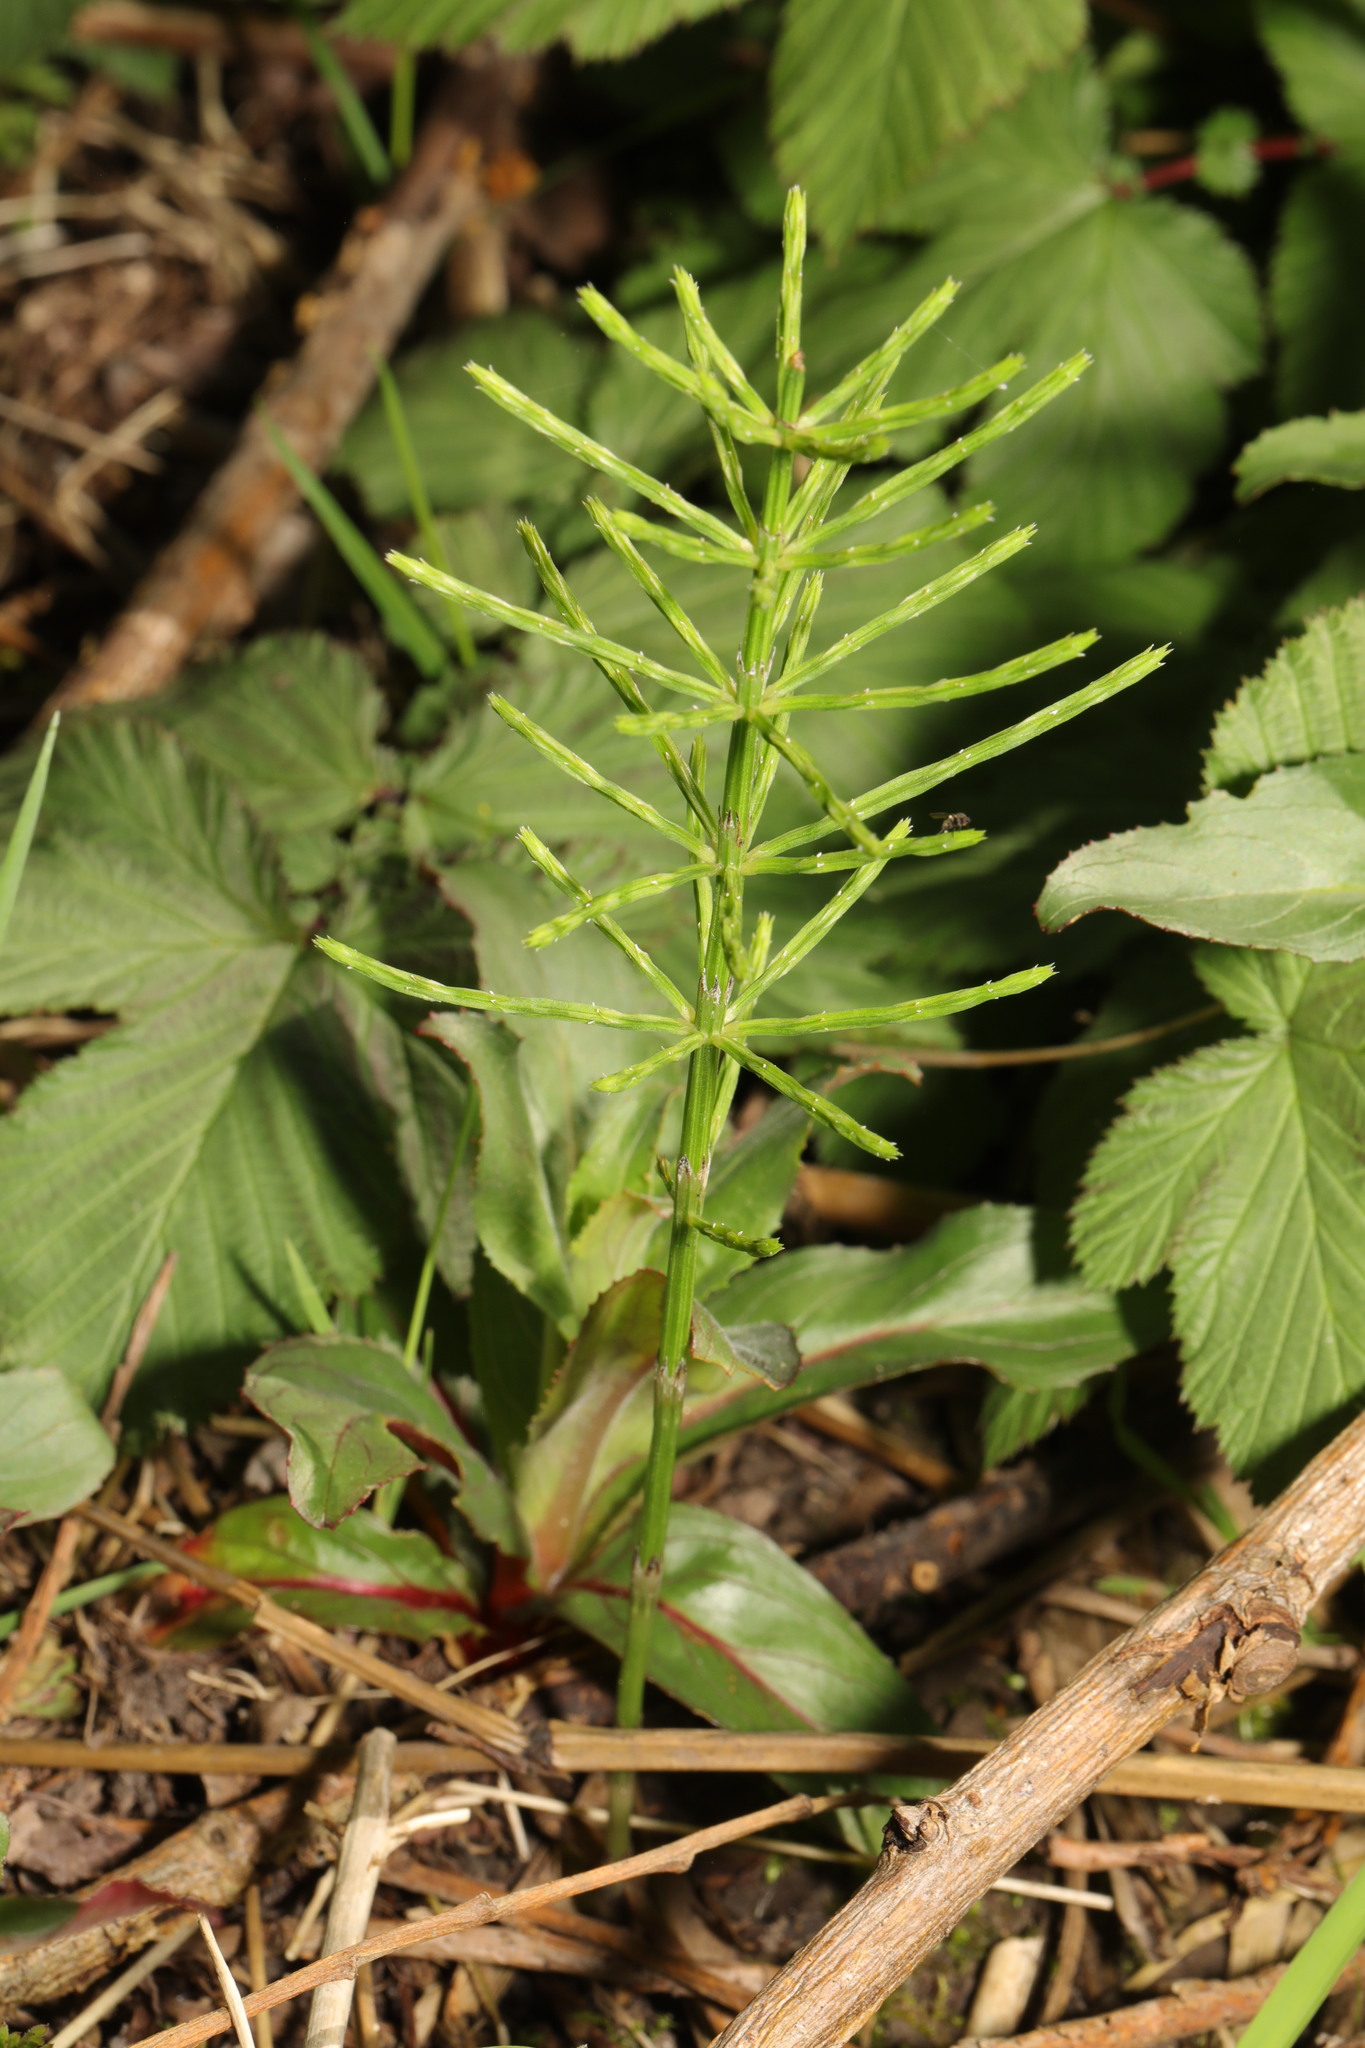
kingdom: Plantae
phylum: Tracheophyta
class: Polypodiopsida
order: Equisetales
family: Equisetaceae
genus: Equisetum
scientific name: Equisetum arvense
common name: Field horsetail
